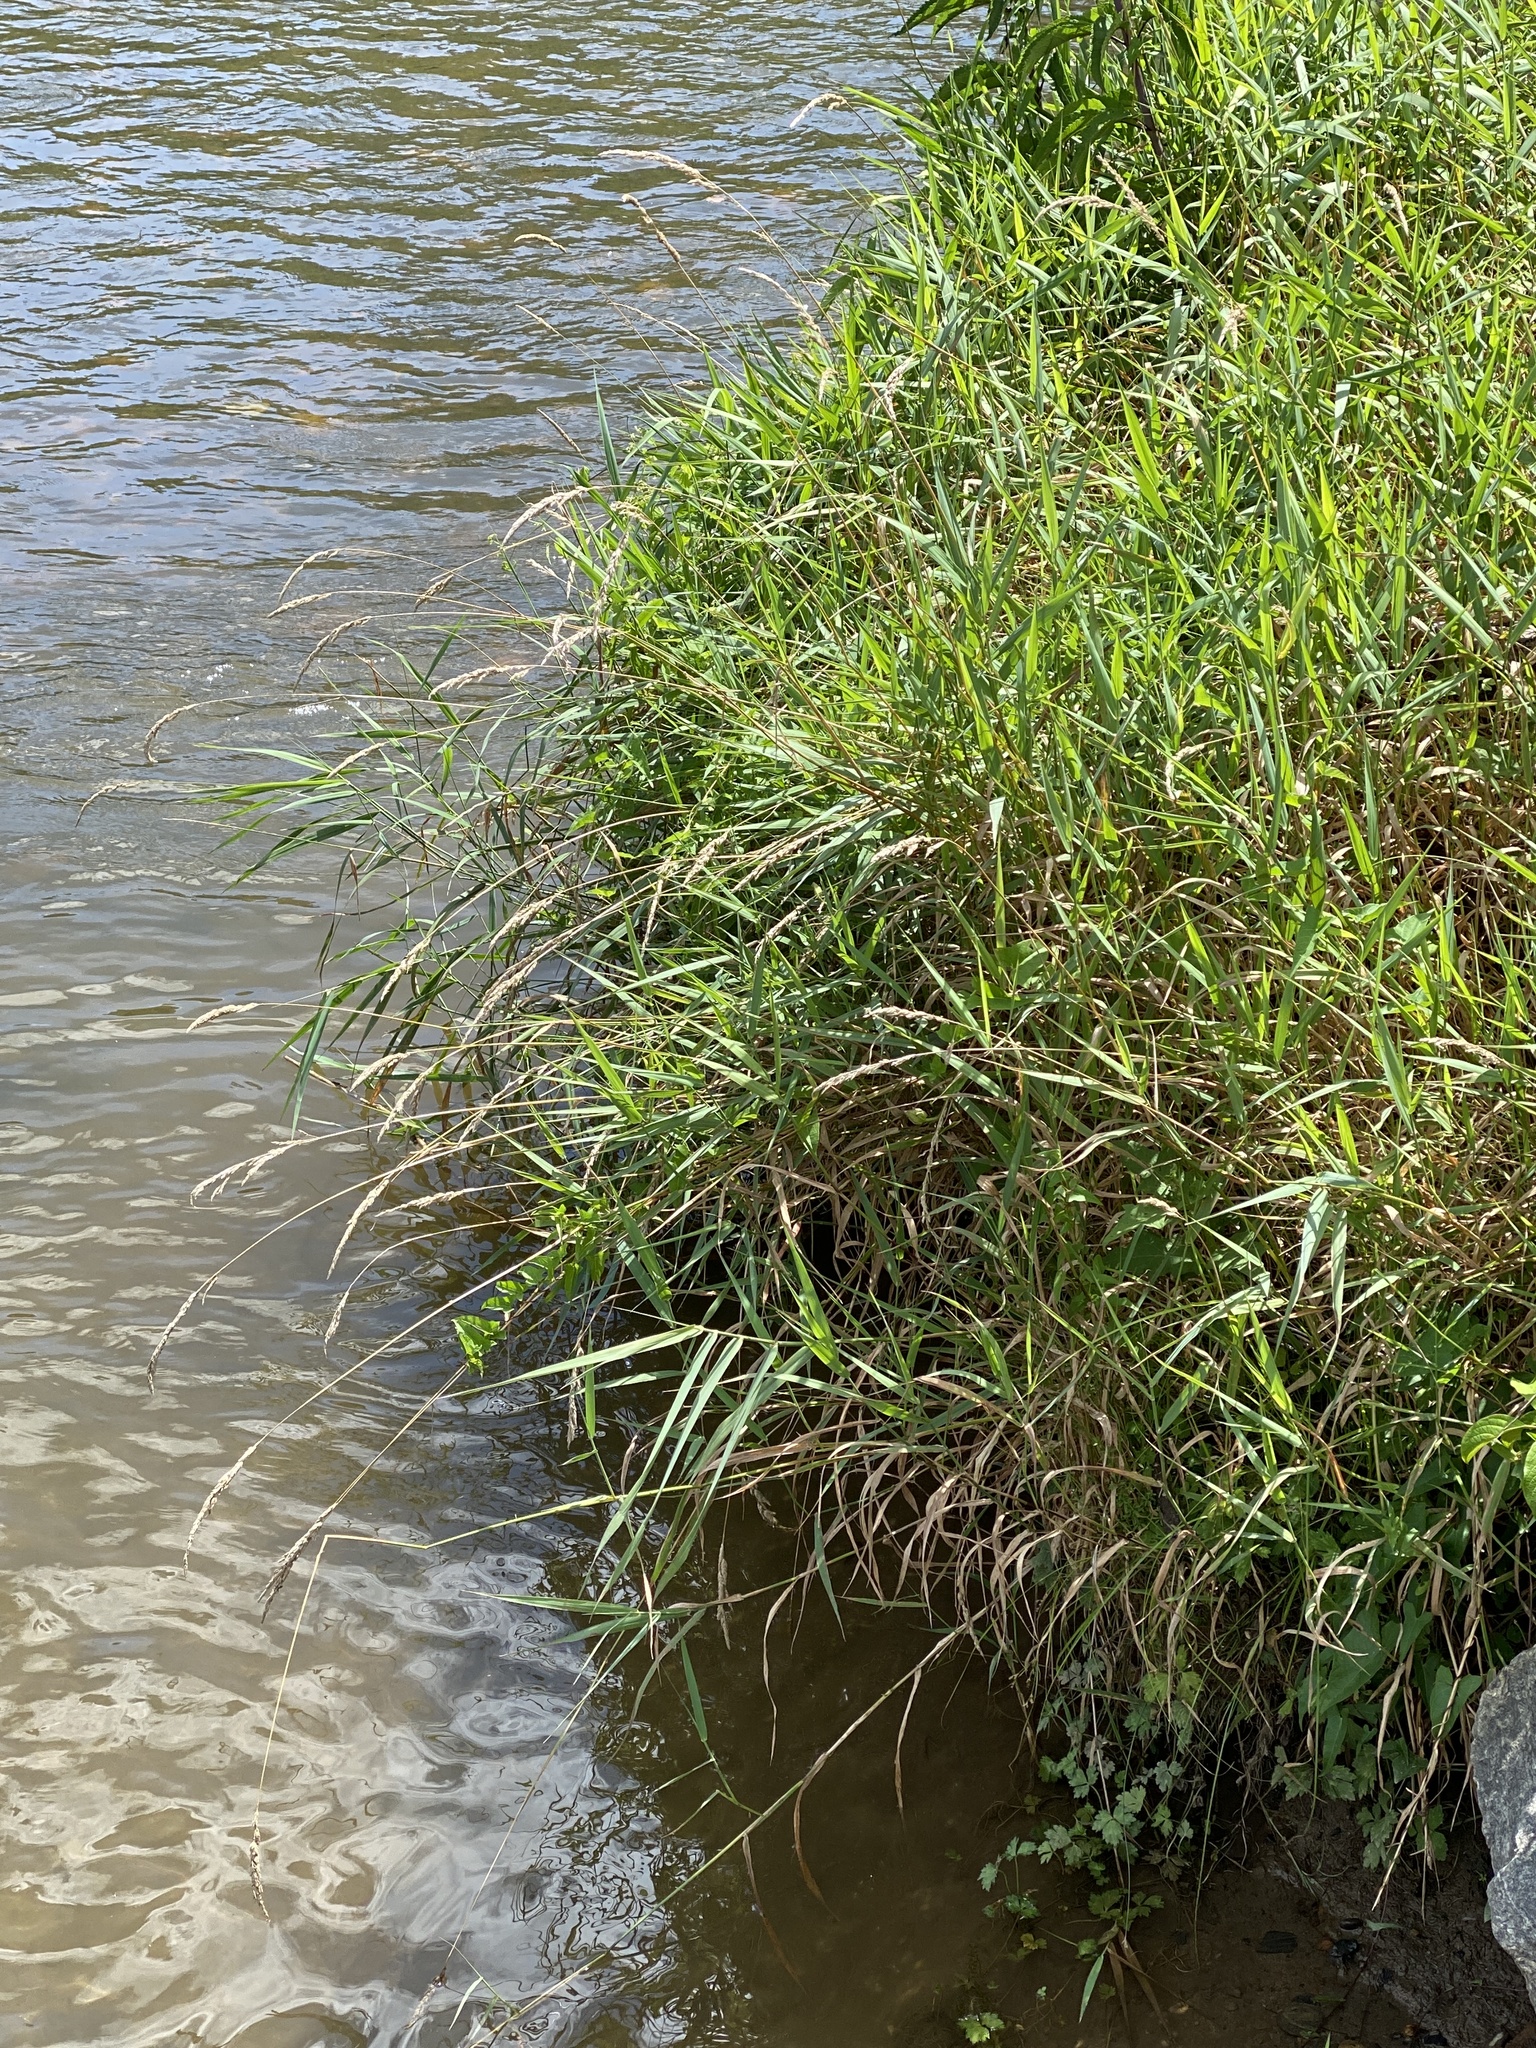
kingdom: Plantae
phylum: Tracheophyta
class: Liliopsida
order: Poales
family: Poaceae
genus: Phalaris
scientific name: Phalaris arundinacea
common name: Reed canary-grass
